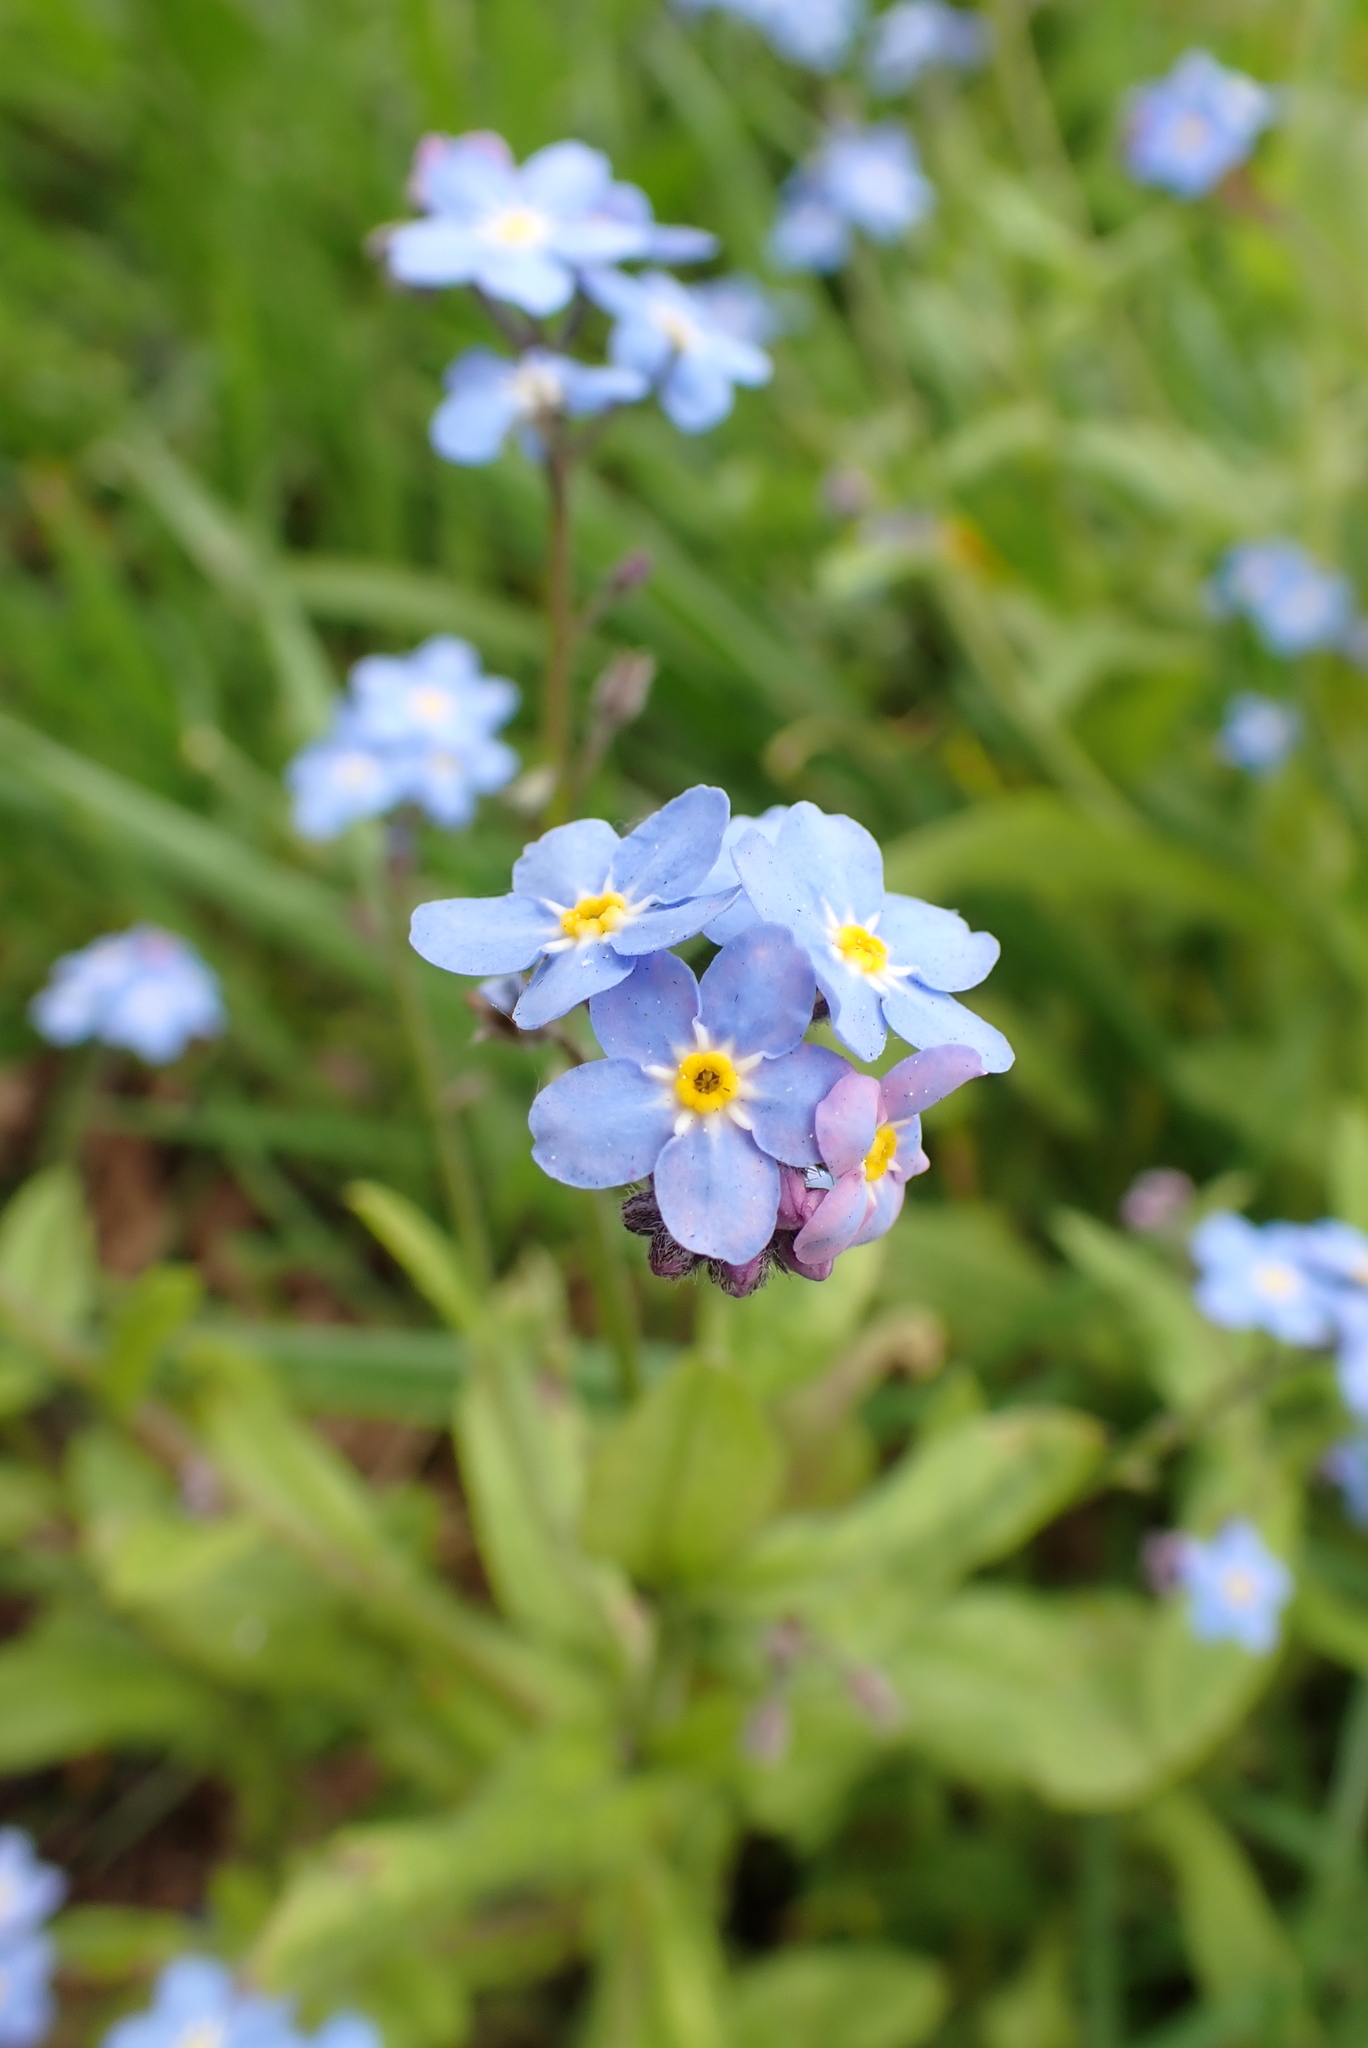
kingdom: Plantae
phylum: Tracheophyta
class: Magnoliopsida
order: Boraginales
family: Boraginaceae
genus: Myosotis
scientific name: Myosotis sylvatica
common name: Wood forget-me-not
